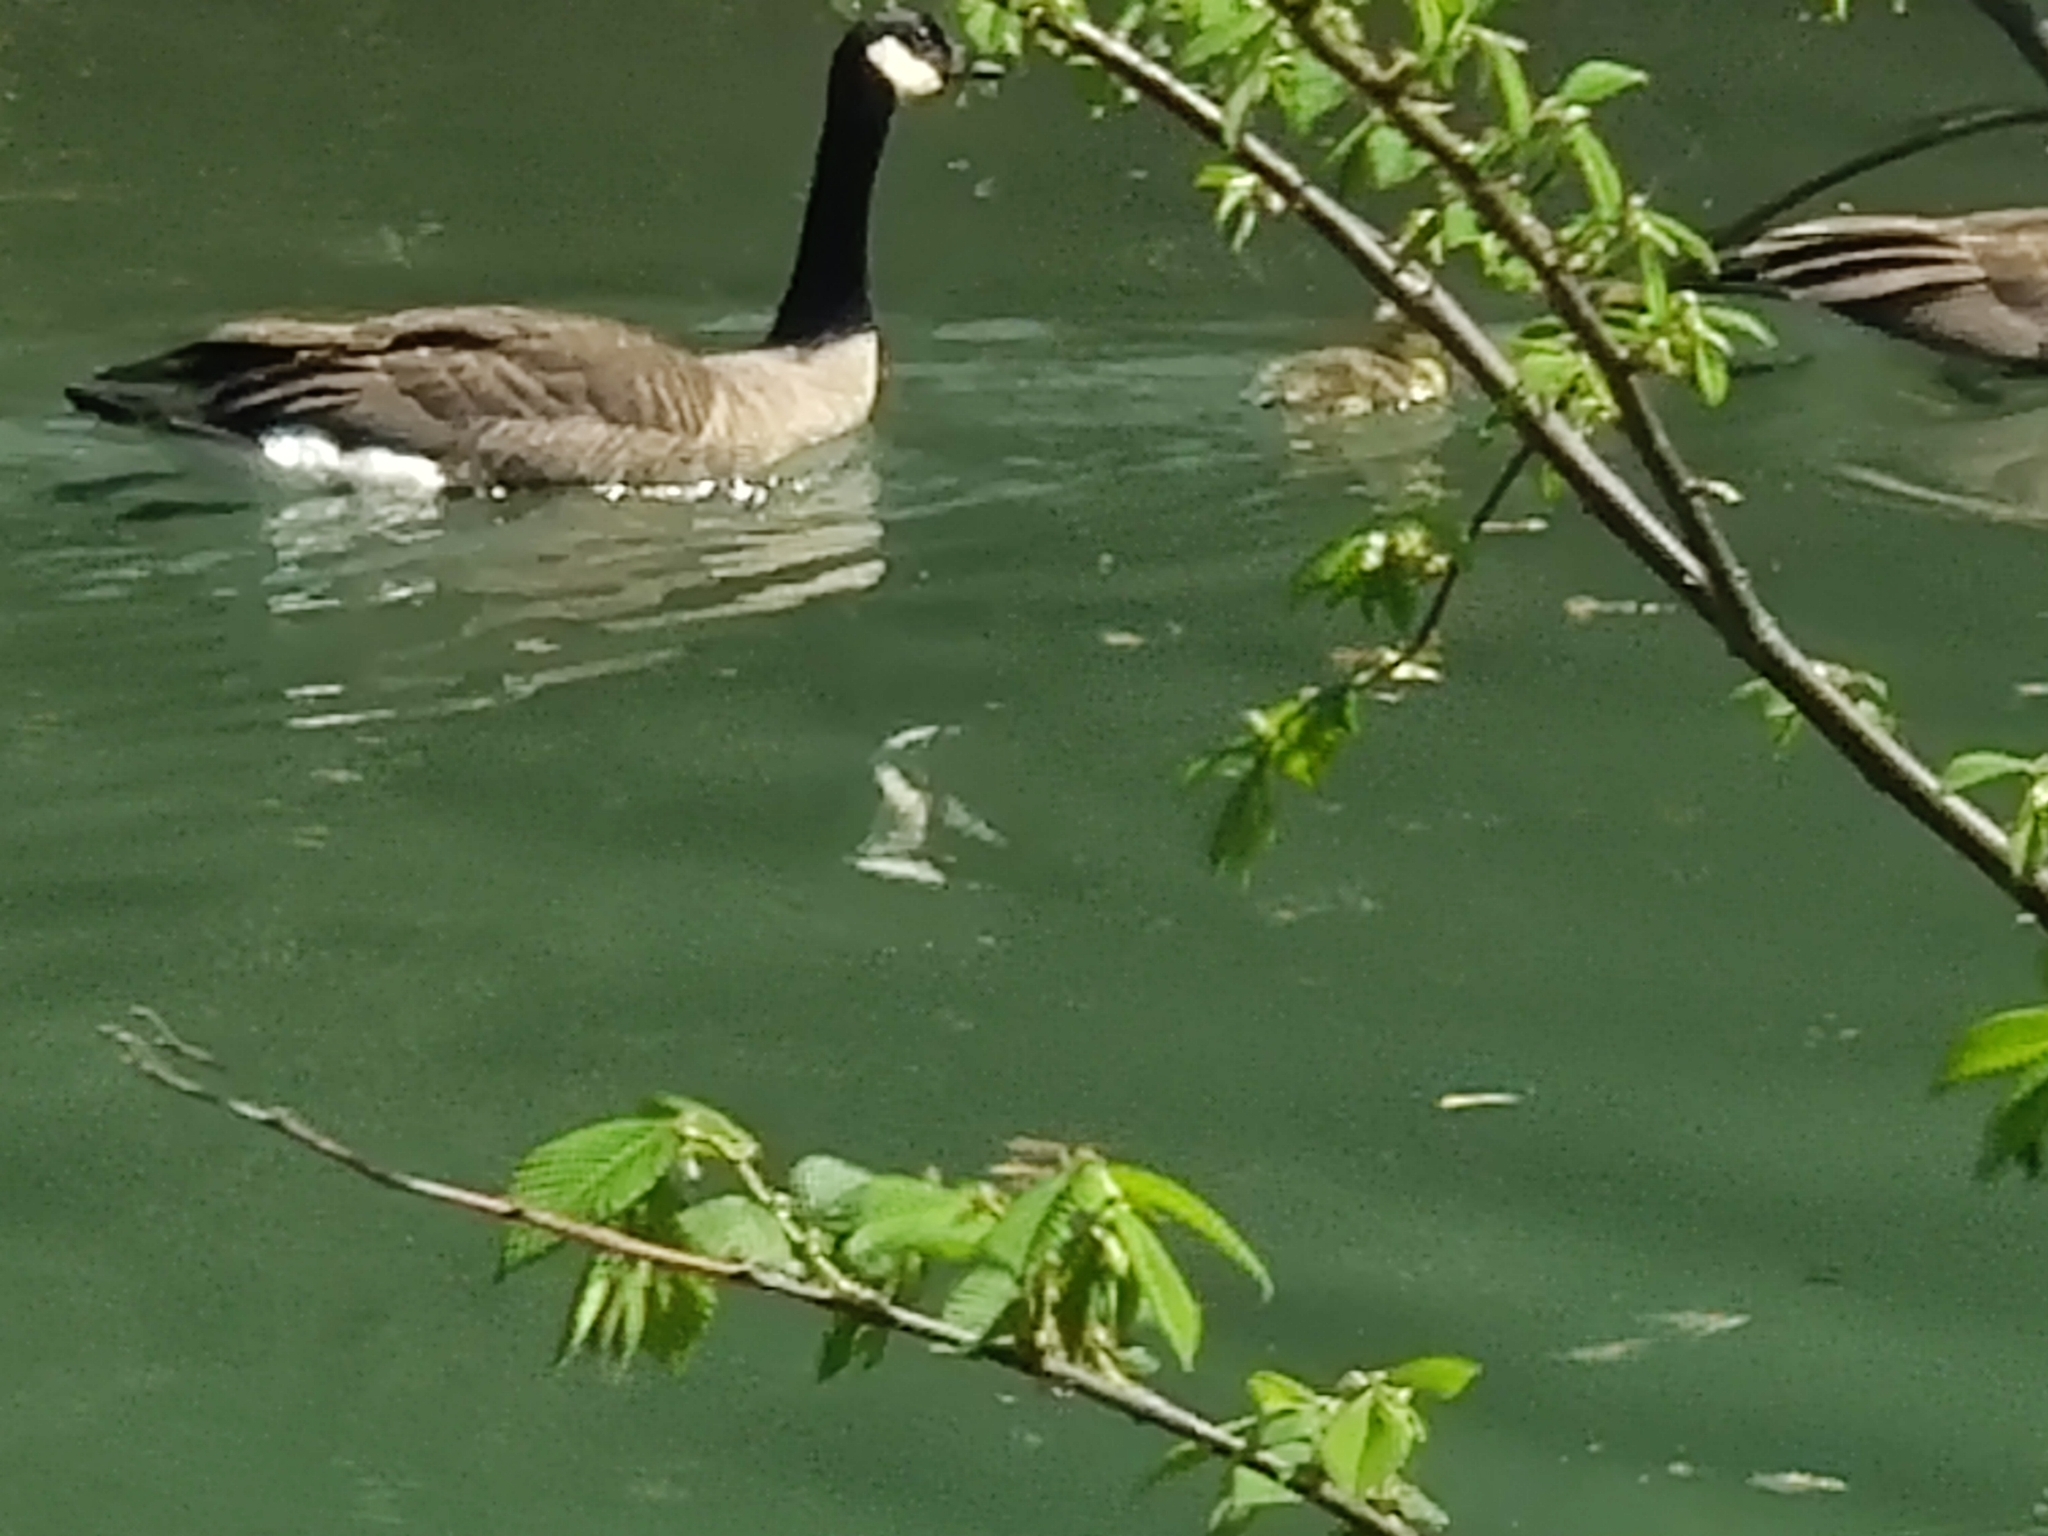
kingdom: Animalia
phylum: Chordata
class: Aves
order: Anseriformes
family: Anatidae
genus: Branta
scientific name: Branta canadensis
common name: Canada goose
